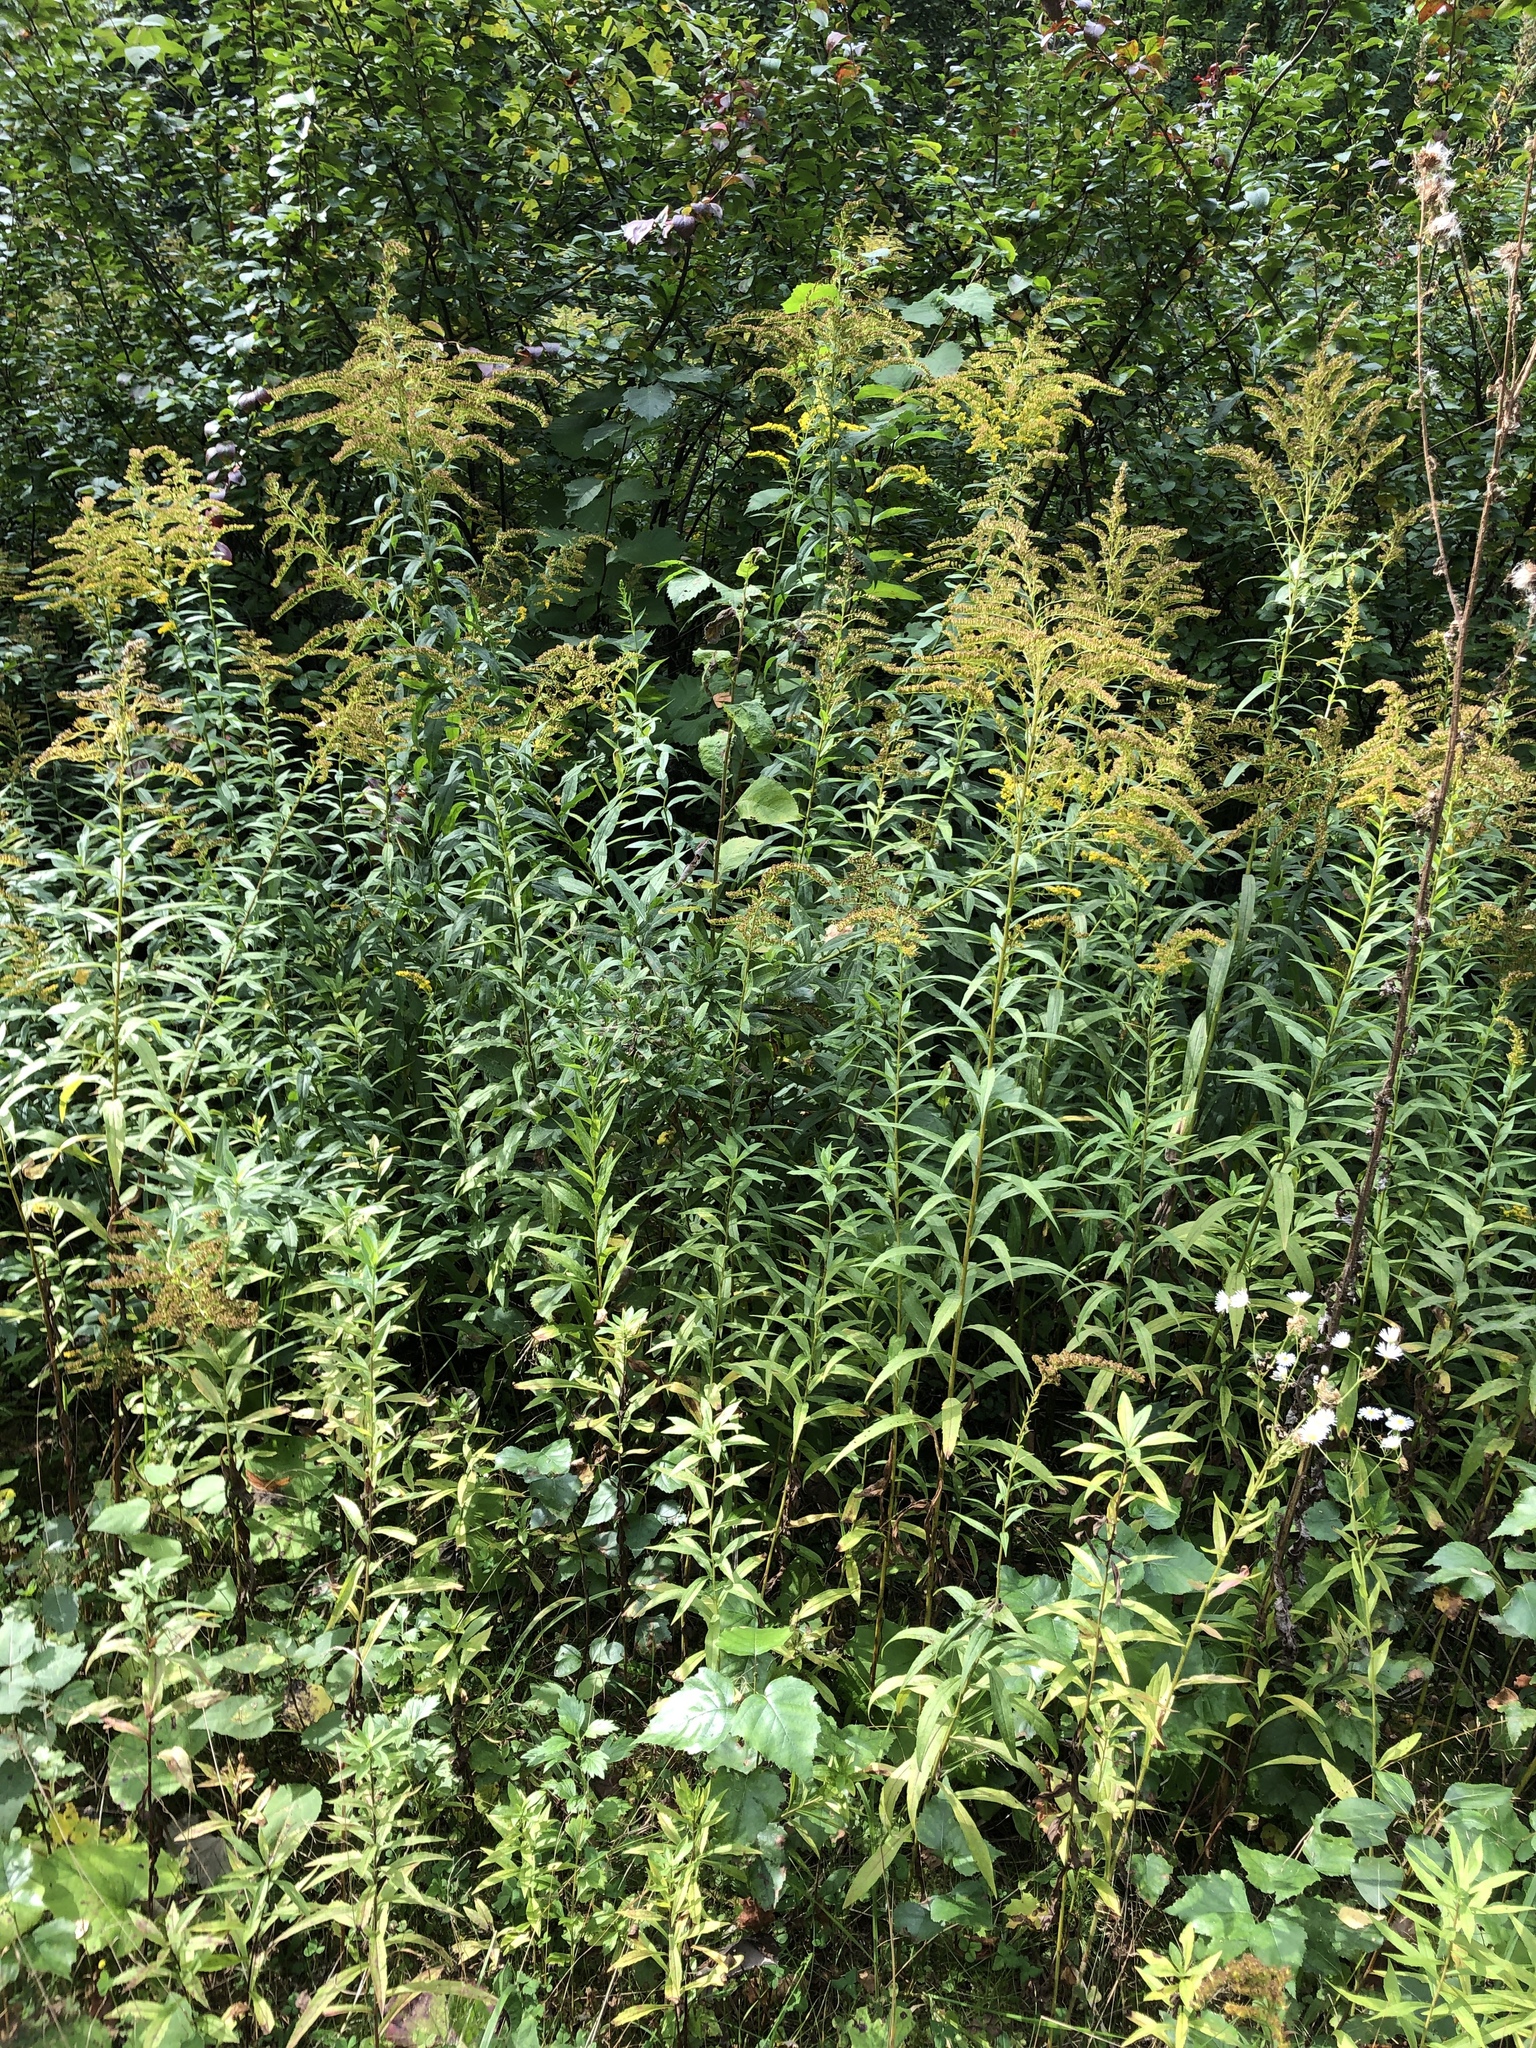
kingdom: Plantae
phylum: Tracheophyta
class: Magnoliopsida
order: Asterales
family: Asteraceae
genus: Solidago
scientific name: Solidago canadensis
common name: Canada goldenrod
